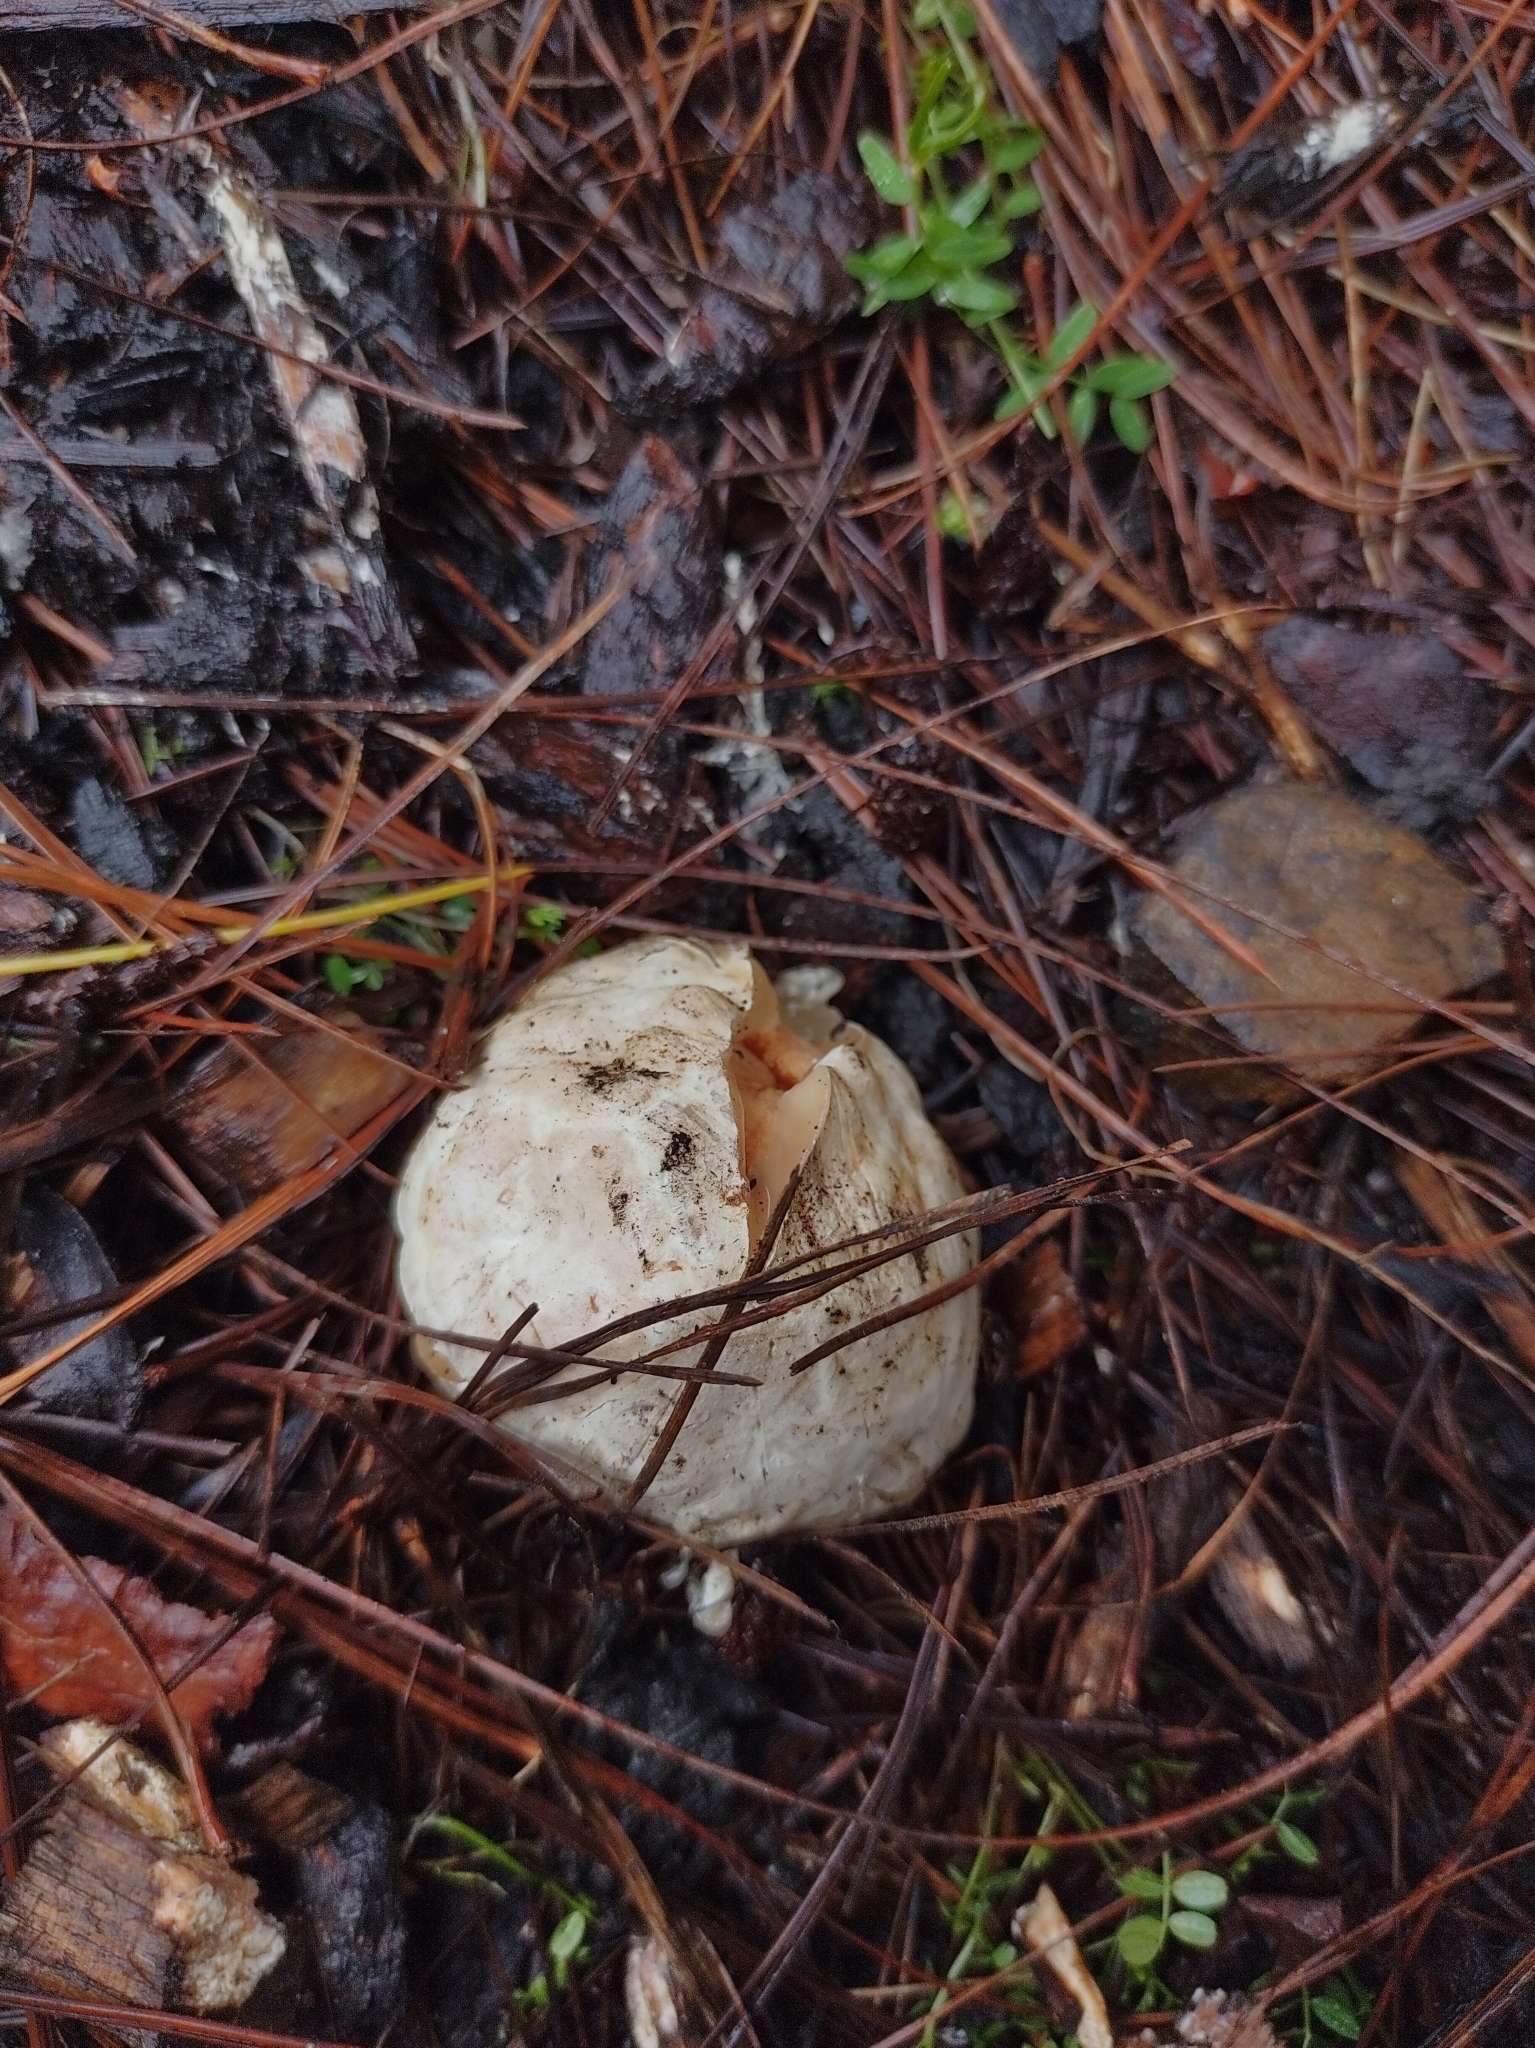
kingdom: Fungi
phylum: Basidiomycota
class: Agaricomycetes
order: Phallales
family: Phallaceae
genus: Clathrus
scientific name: Clathrus ruber
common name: Red cage
